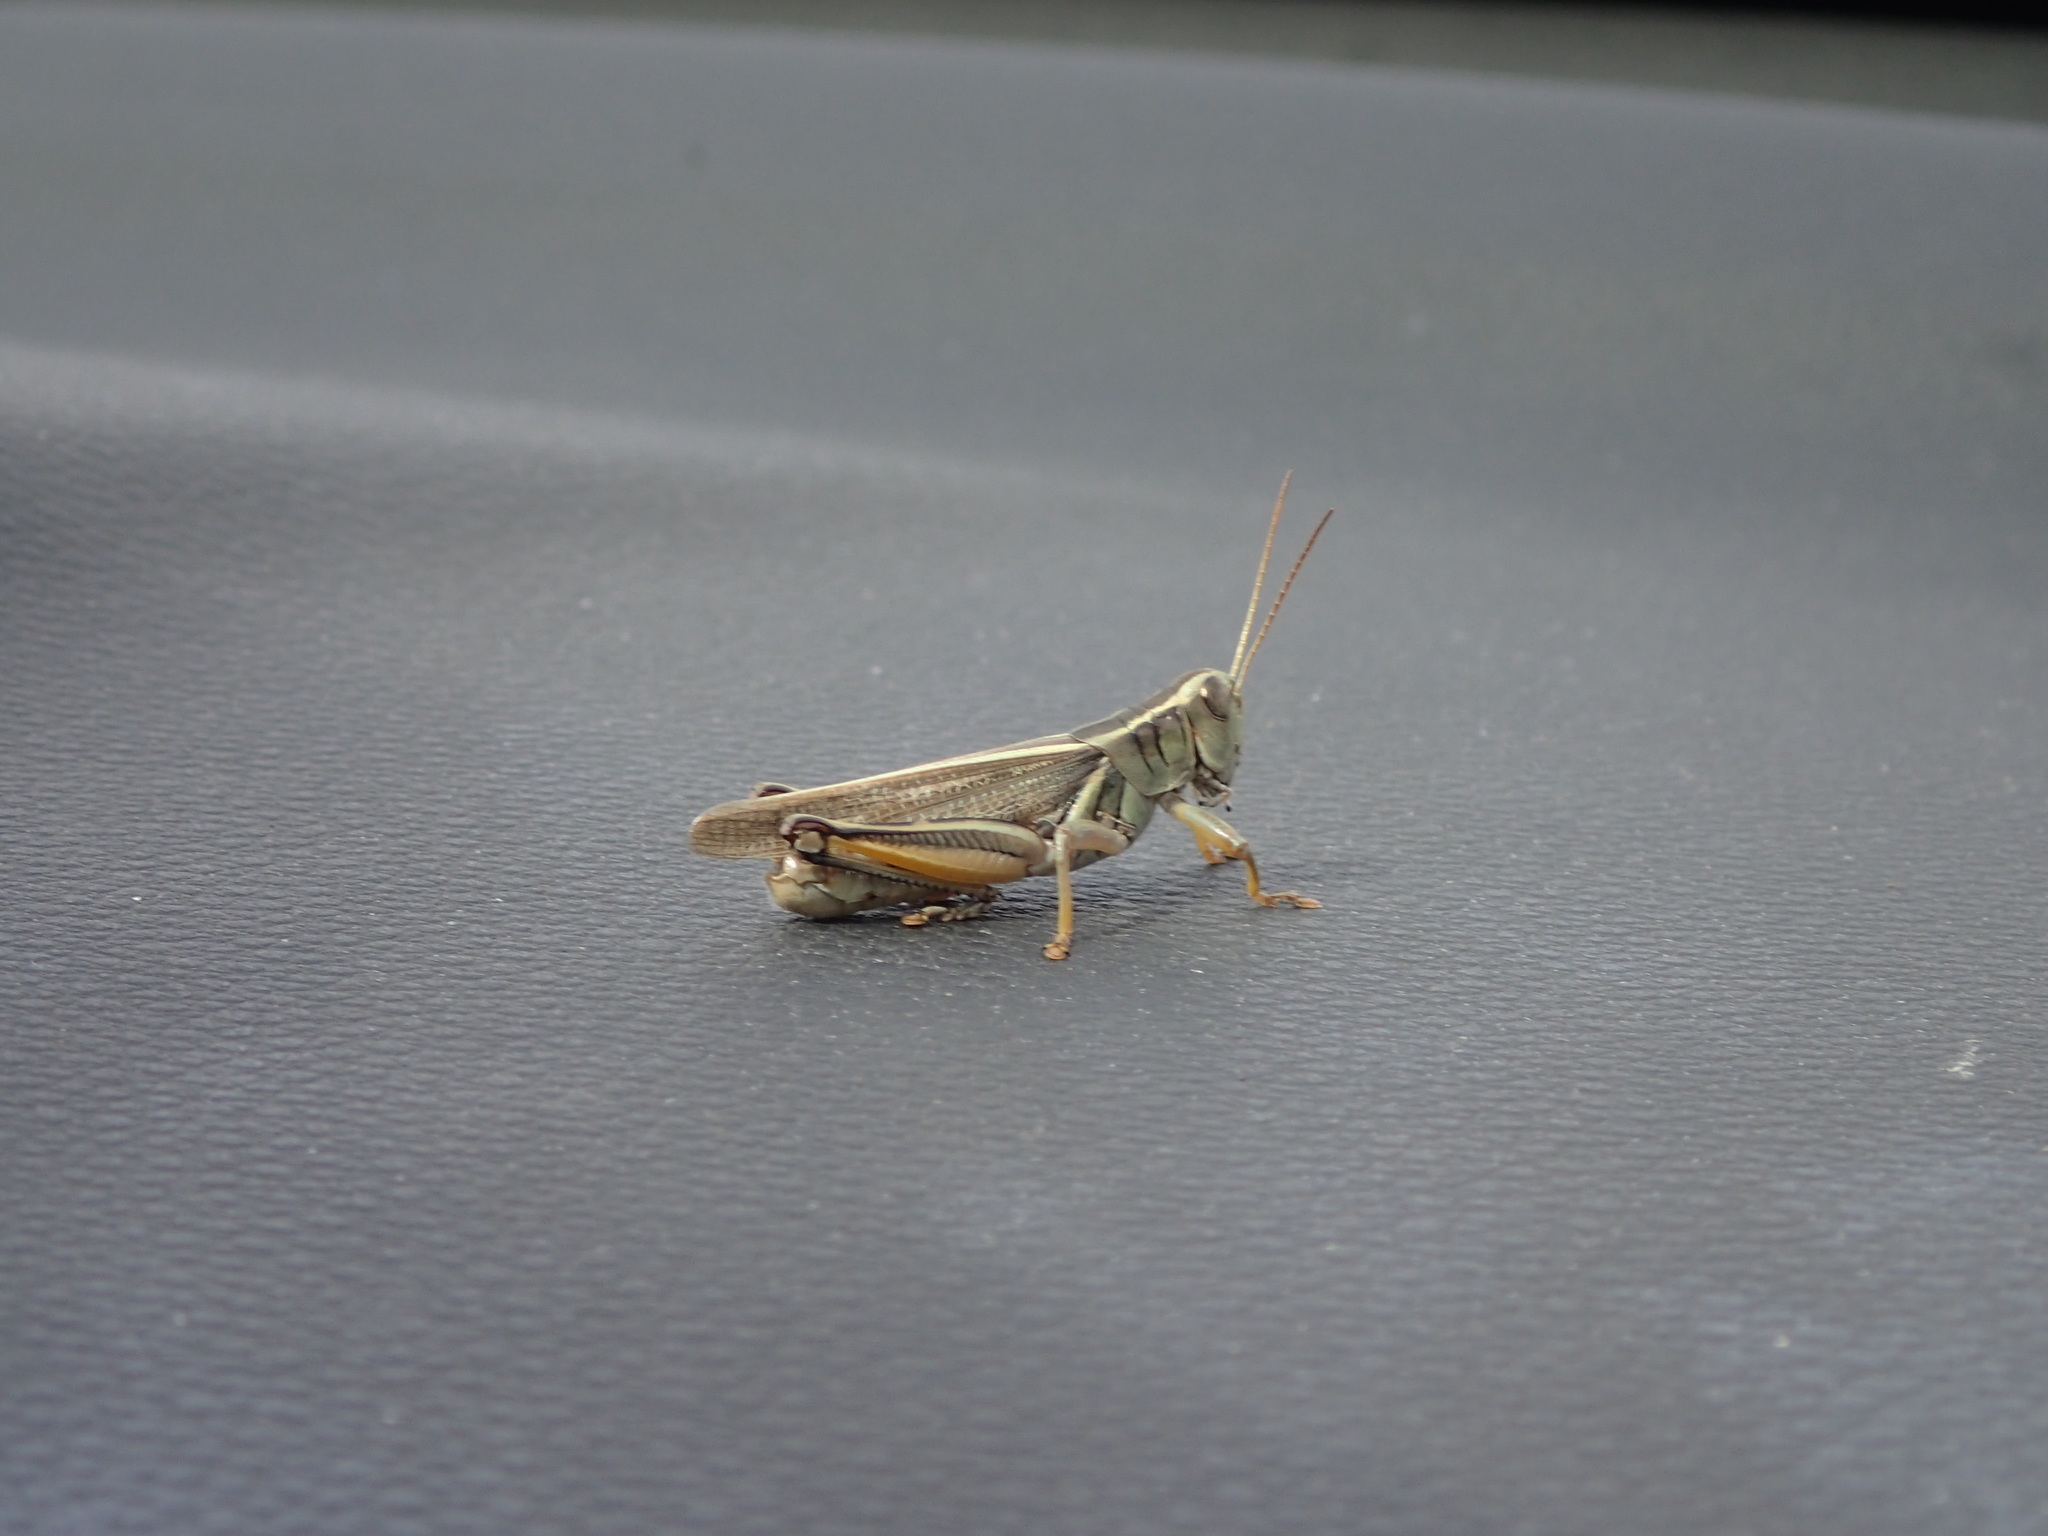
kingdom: Animalia
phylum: Arthropoda
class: Insecta
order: Orthoptera
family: Acrididae
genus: Melanoplus
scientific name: Melanoplus bivittatus
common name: Two-striped grasshopper
